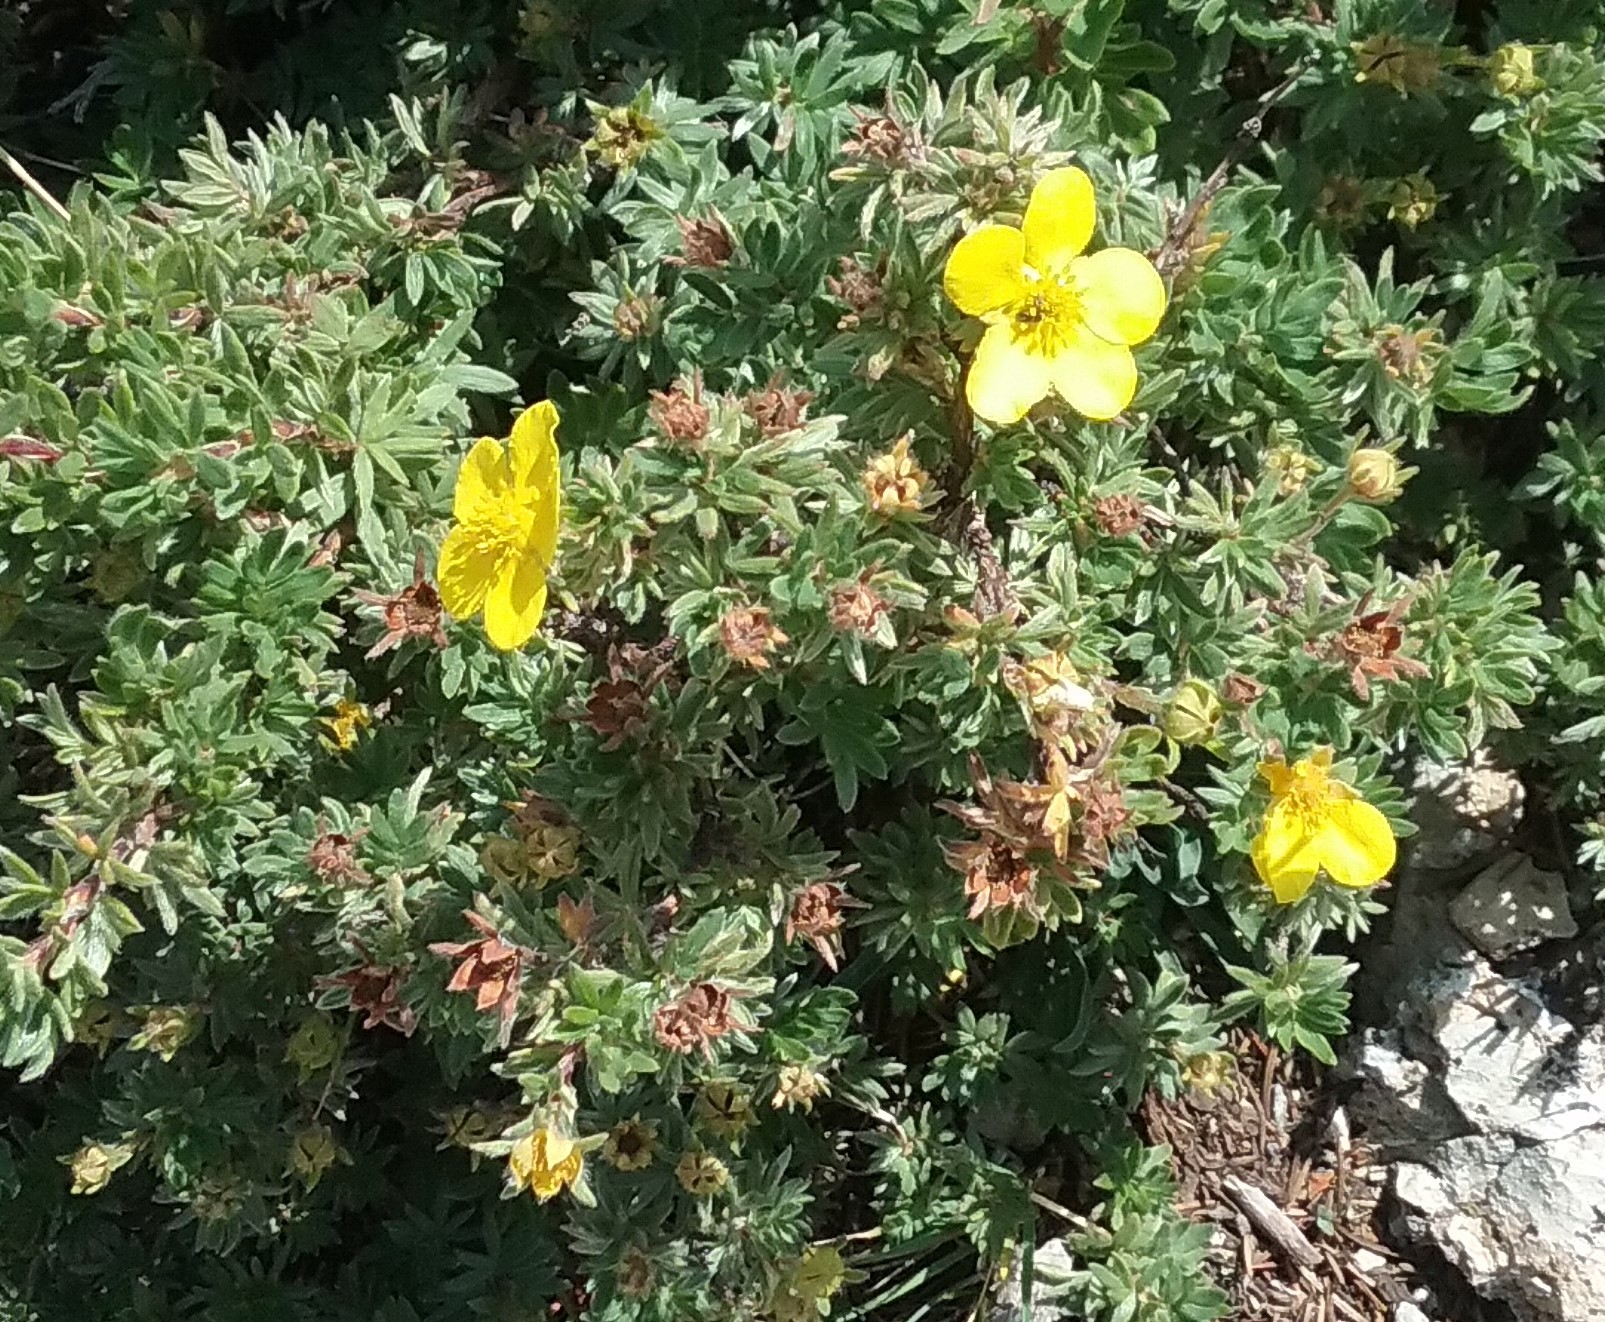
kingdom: Plantae
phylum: Tracheophyta
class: Magnoliopsida
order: Rosales
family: Rosaceae
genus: Dasiphora
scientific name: Dasiphora fruticosa
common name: Shrubby cinquefoil
